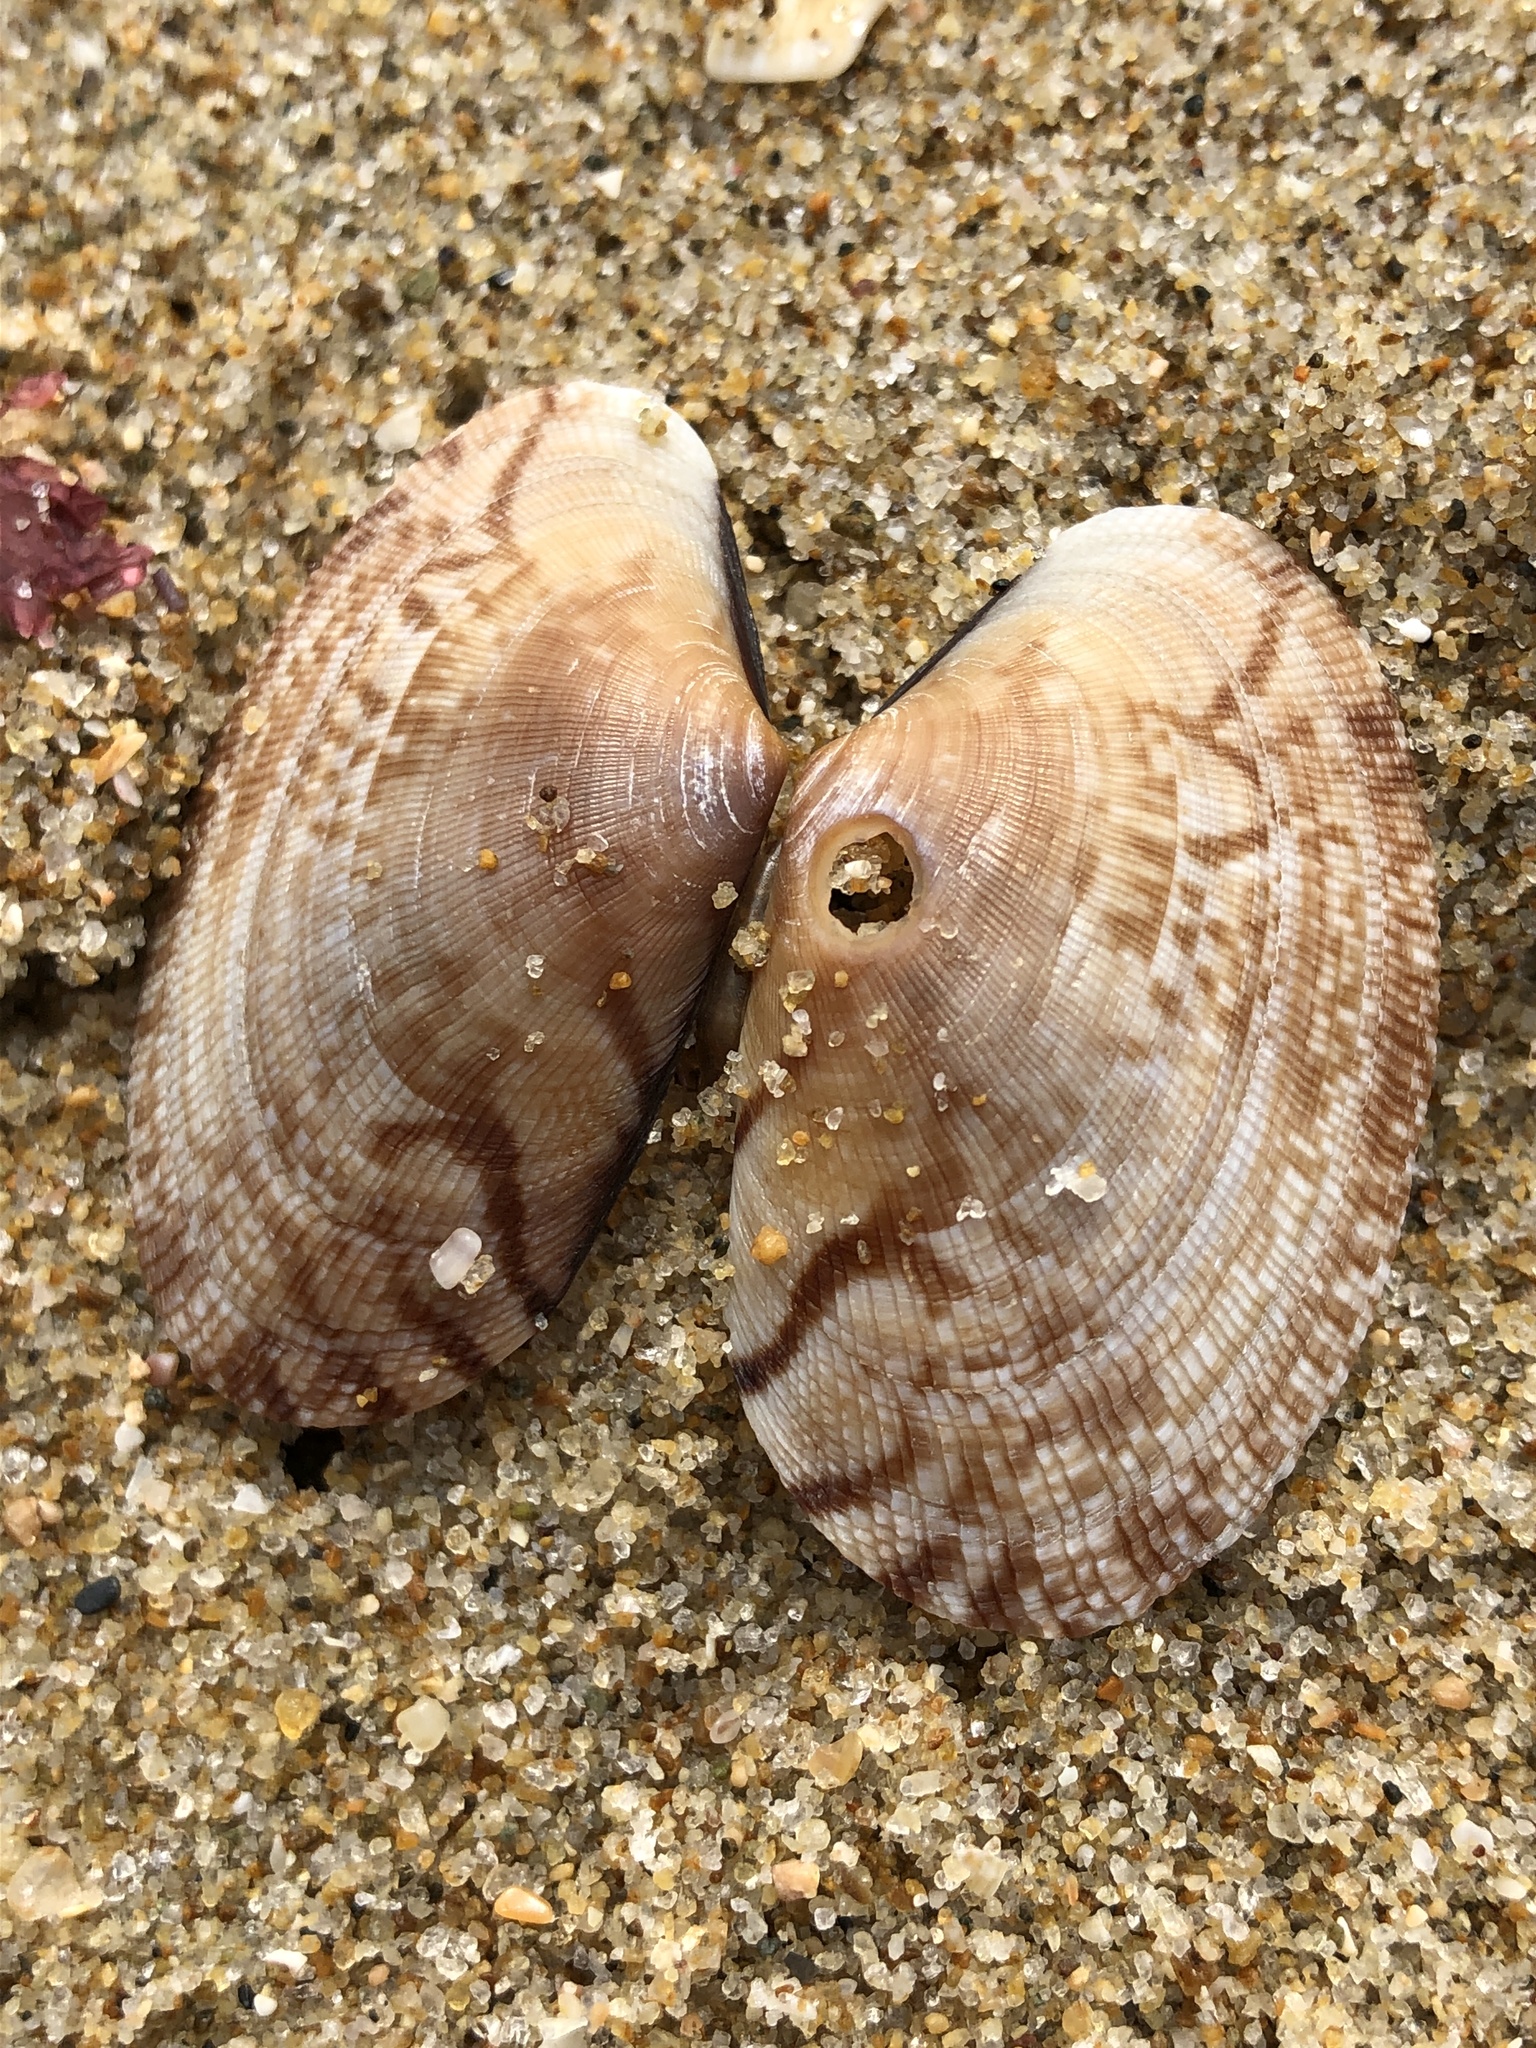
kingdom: Animalia
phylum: Mollusca
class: Bivalvia
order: Venerida
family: Veneridae
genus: Ruditapes
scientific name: Ruditapes philippinarum
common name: Manila clam
